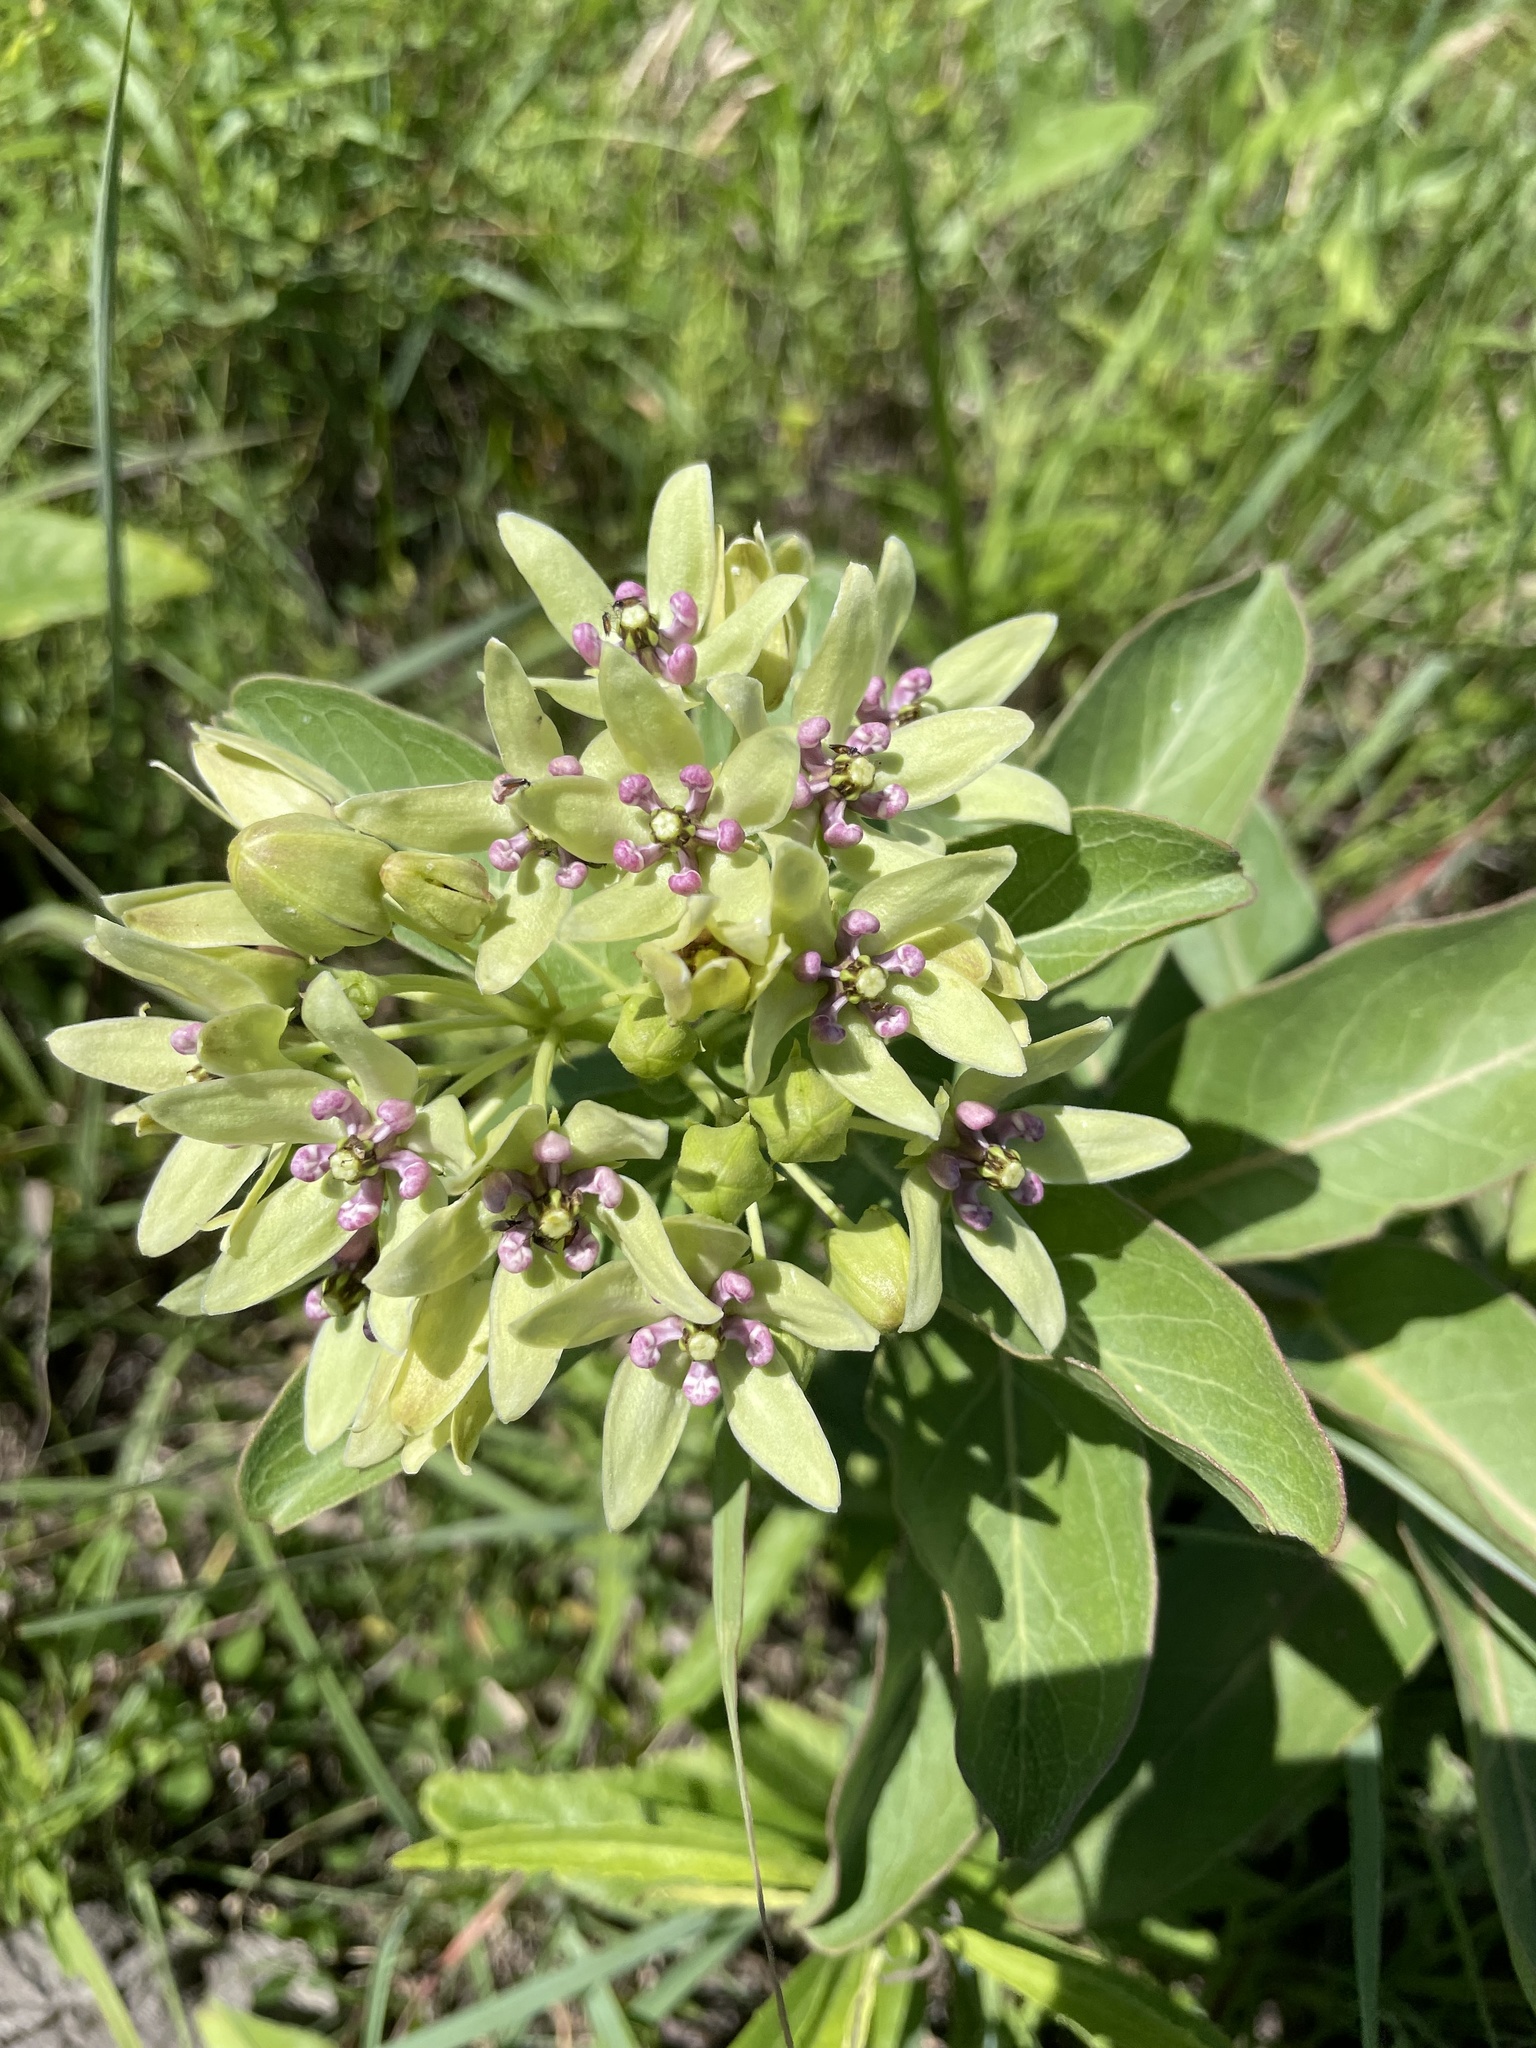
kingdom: Plantae
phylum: Tracheophyta
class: Magnoliopsida
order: Gentianales
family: Apocynaceae
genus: Asclepias
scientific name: Asclepias viridis
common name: Antelope-horns
